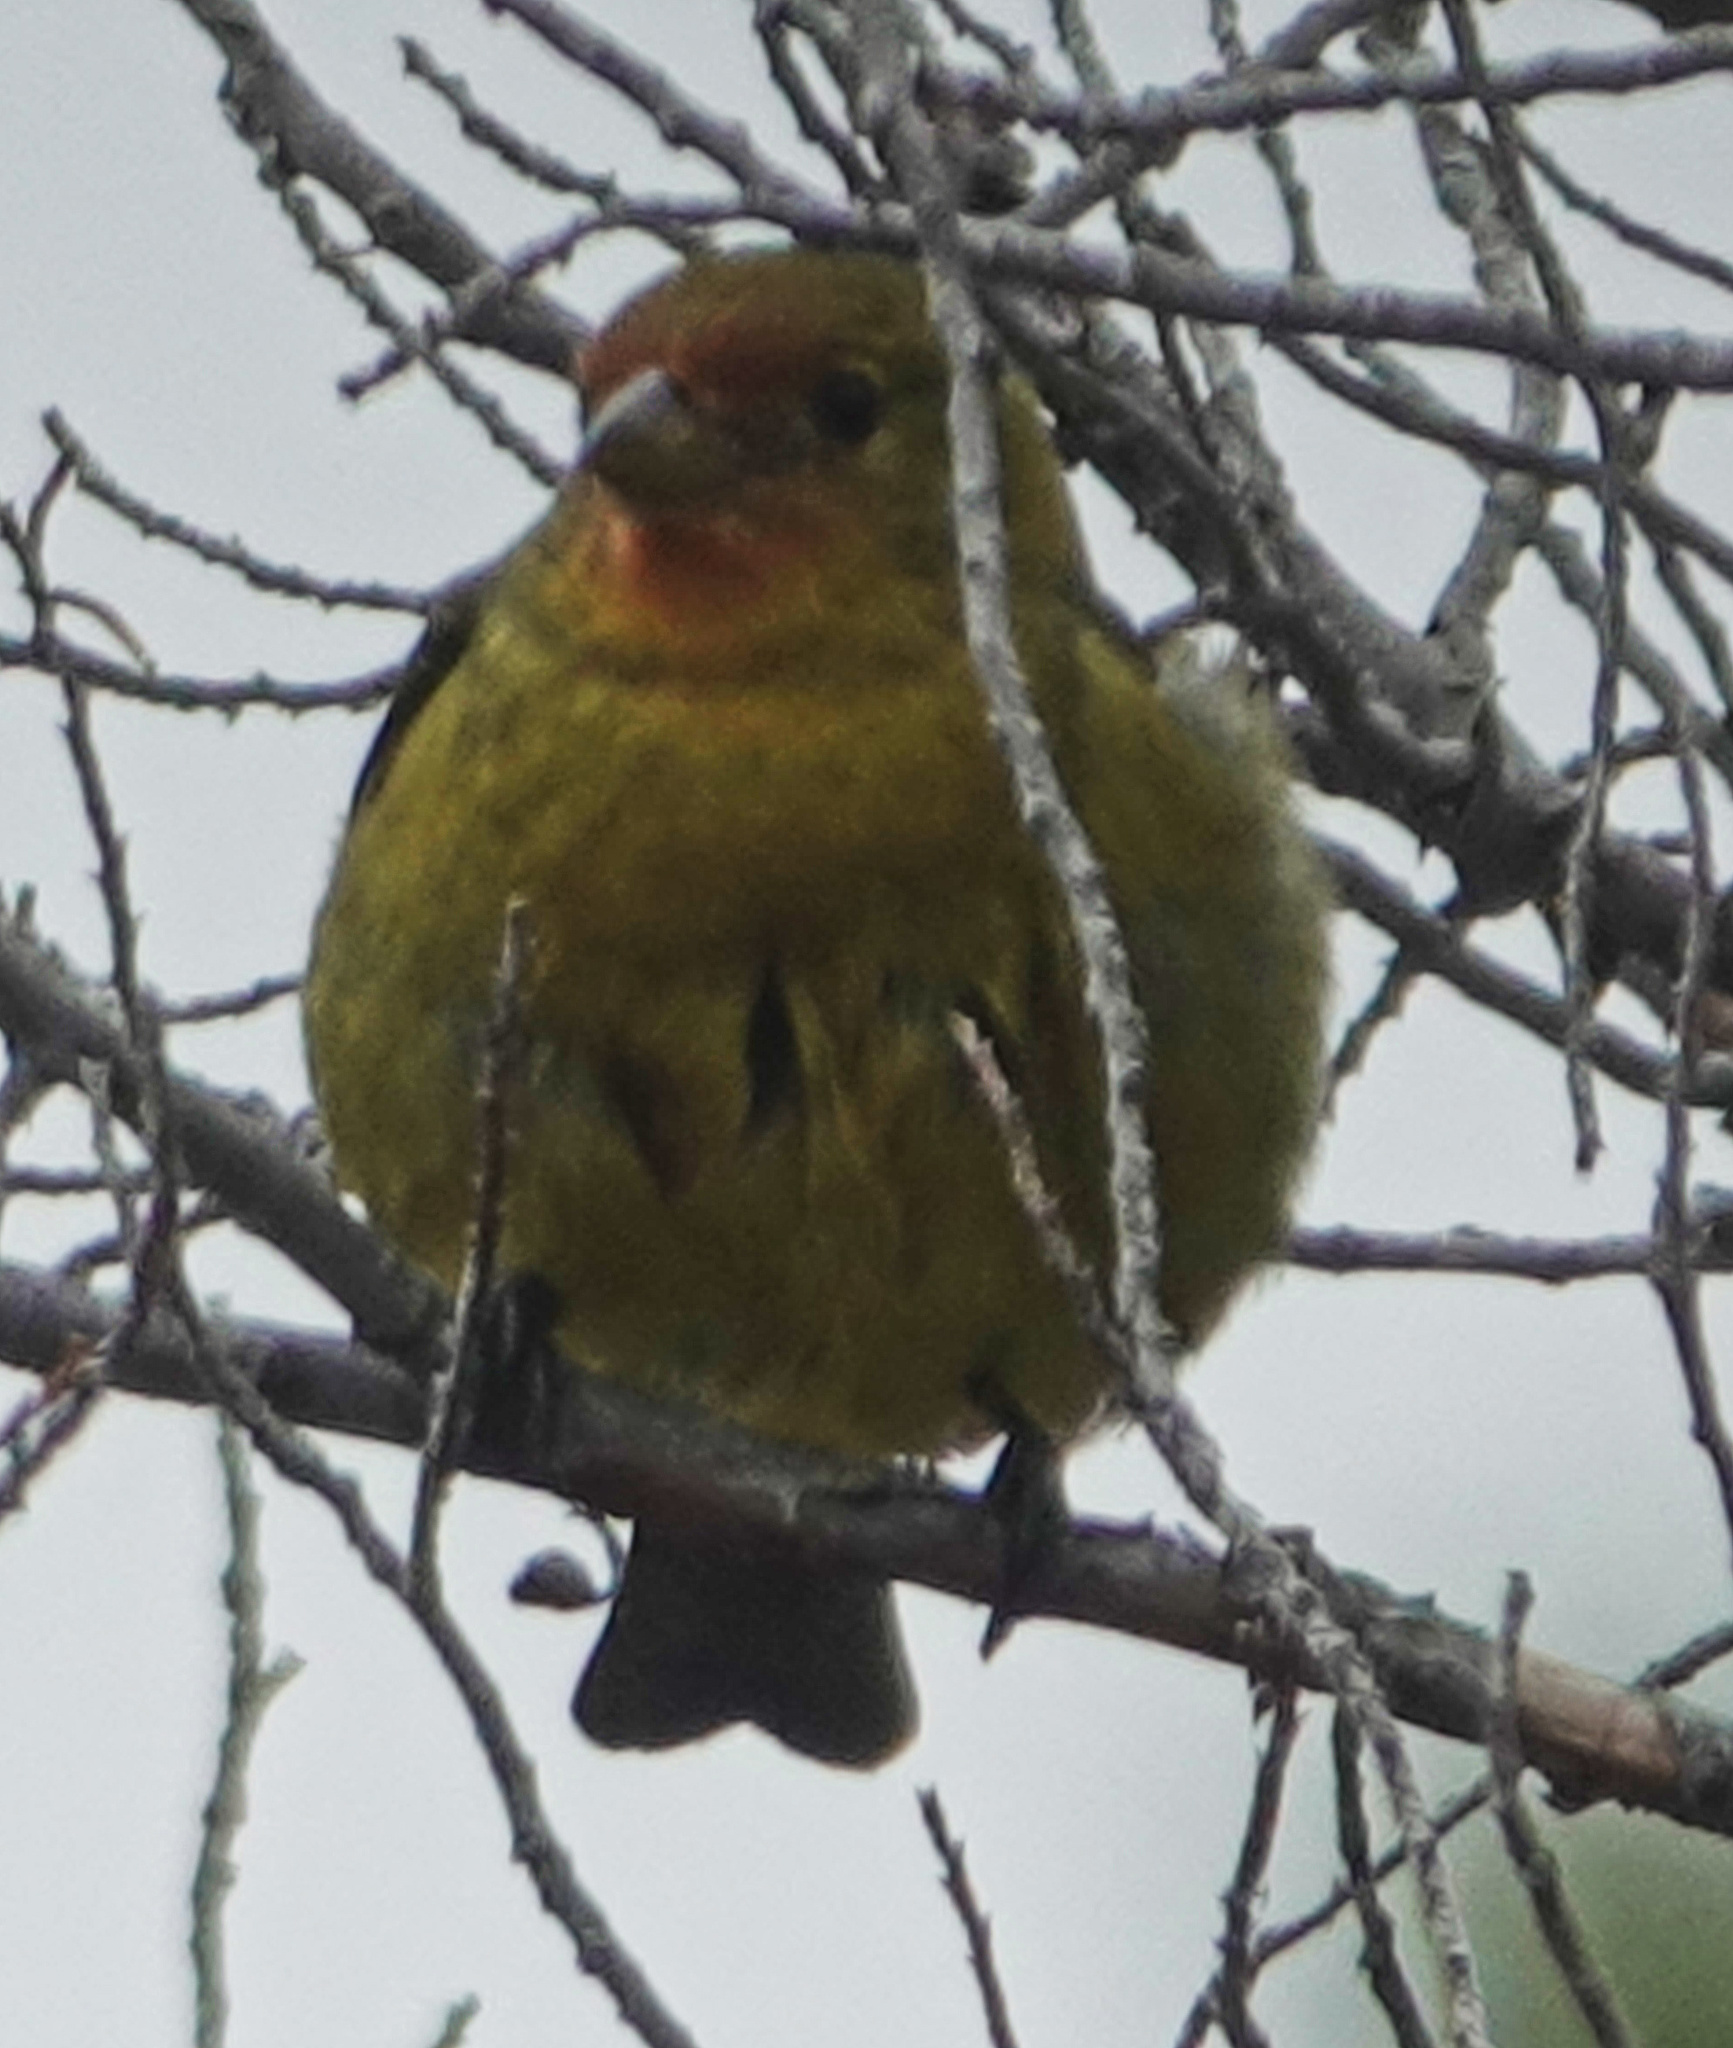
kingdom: Animalia
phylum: Chordata
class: Aves
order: Passeriformes
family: Cardinalidae
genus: Piranga
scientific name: Piranga ludoviciana
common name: Western tanager
